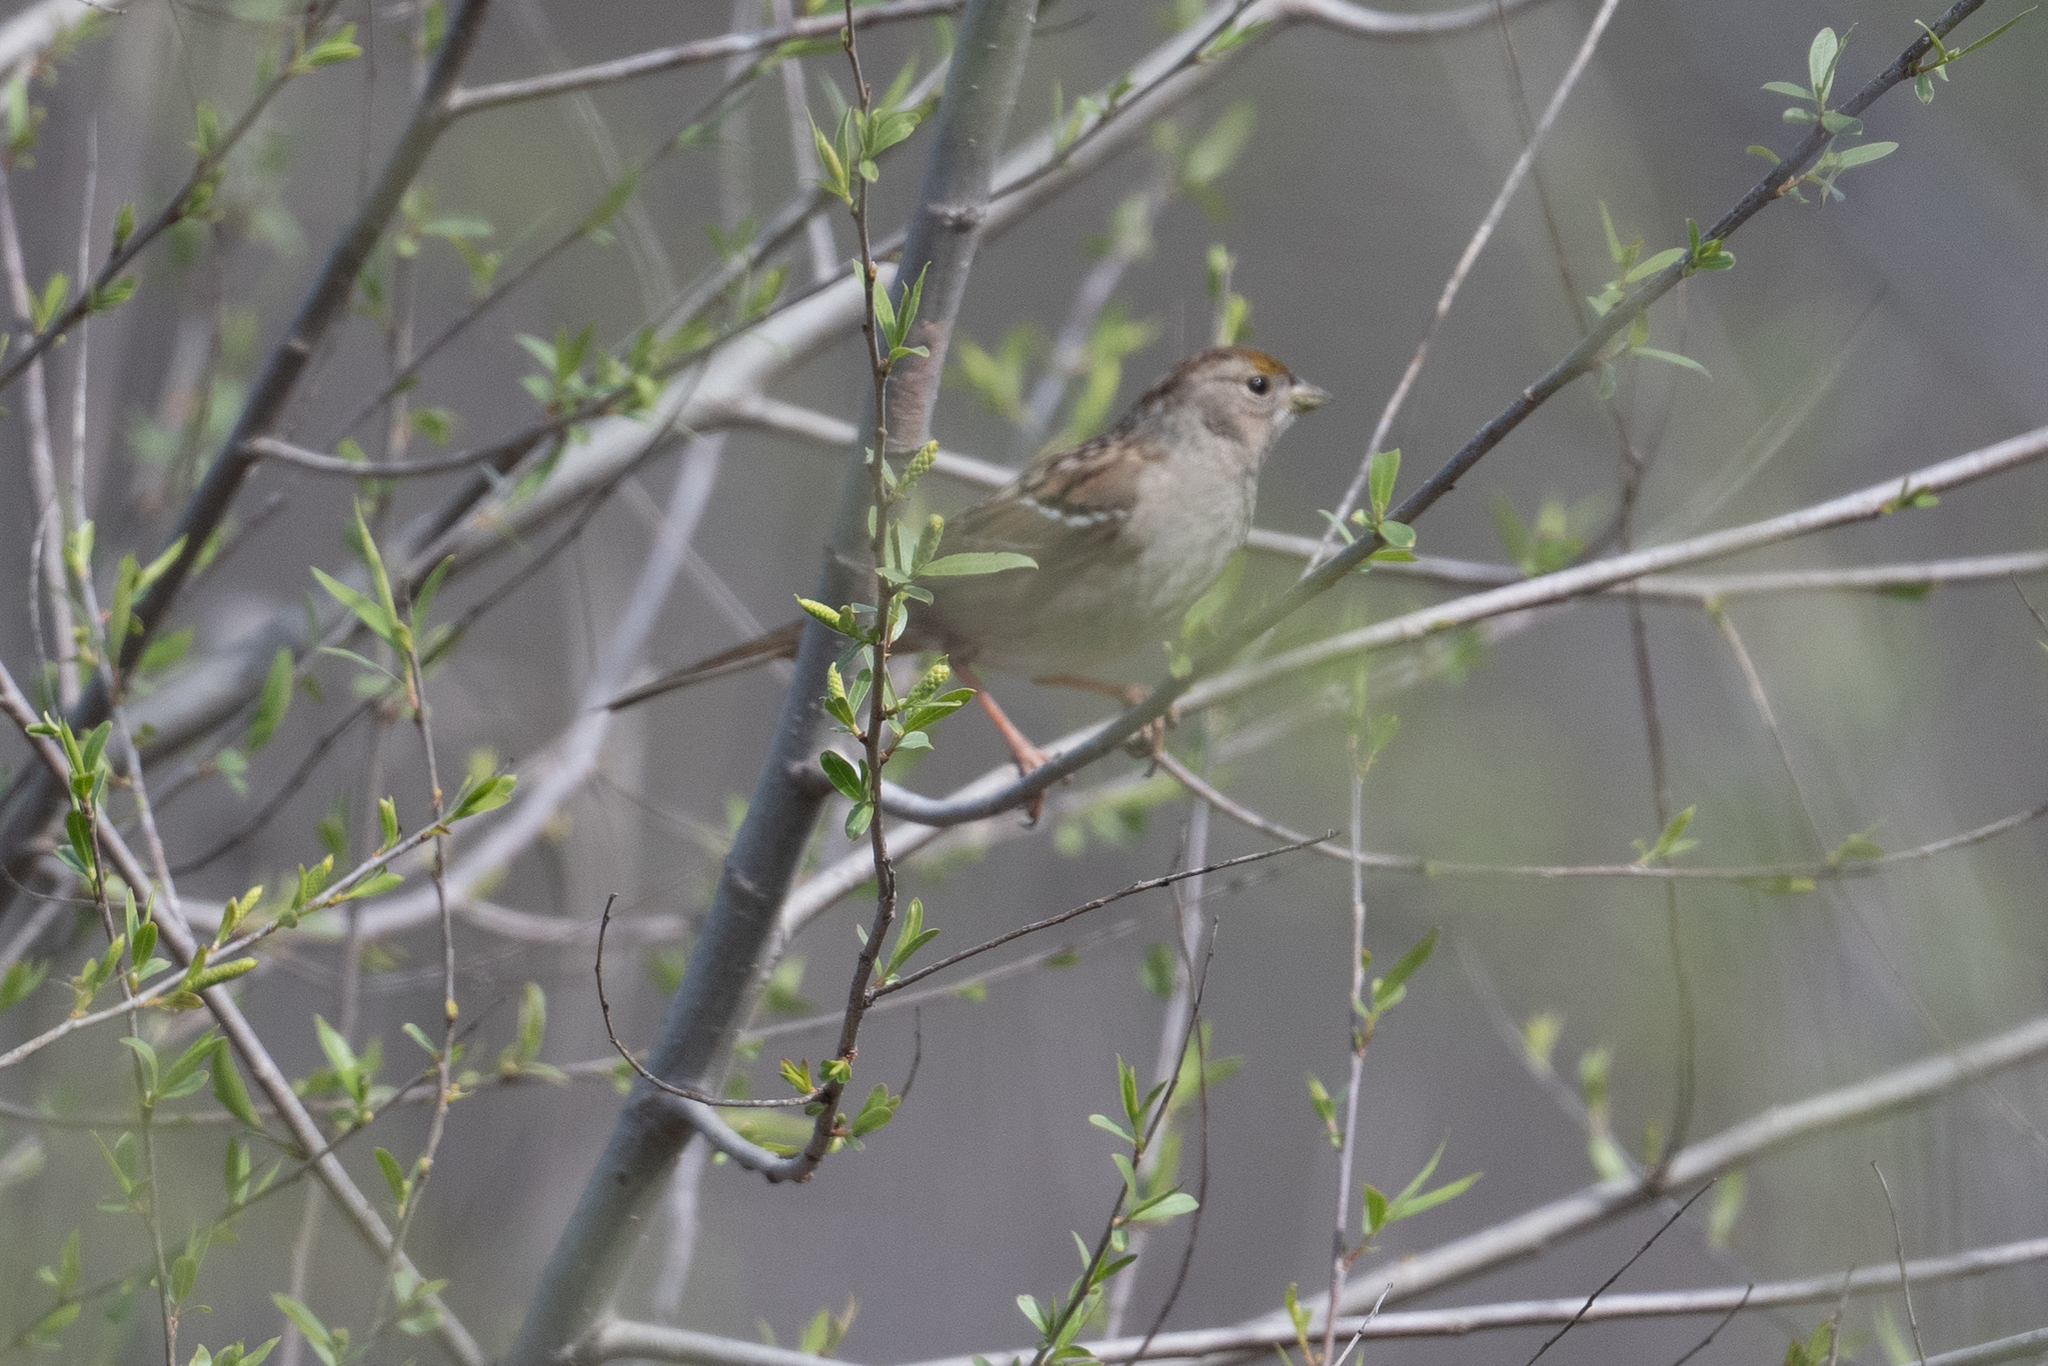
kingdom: Animalia
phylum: Chordata
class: Aves
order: Passeriformes
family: Passerellidae
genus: Zonotrichia
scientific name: Zonotrichia atricapilla
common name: Golden-crowned sparrow
